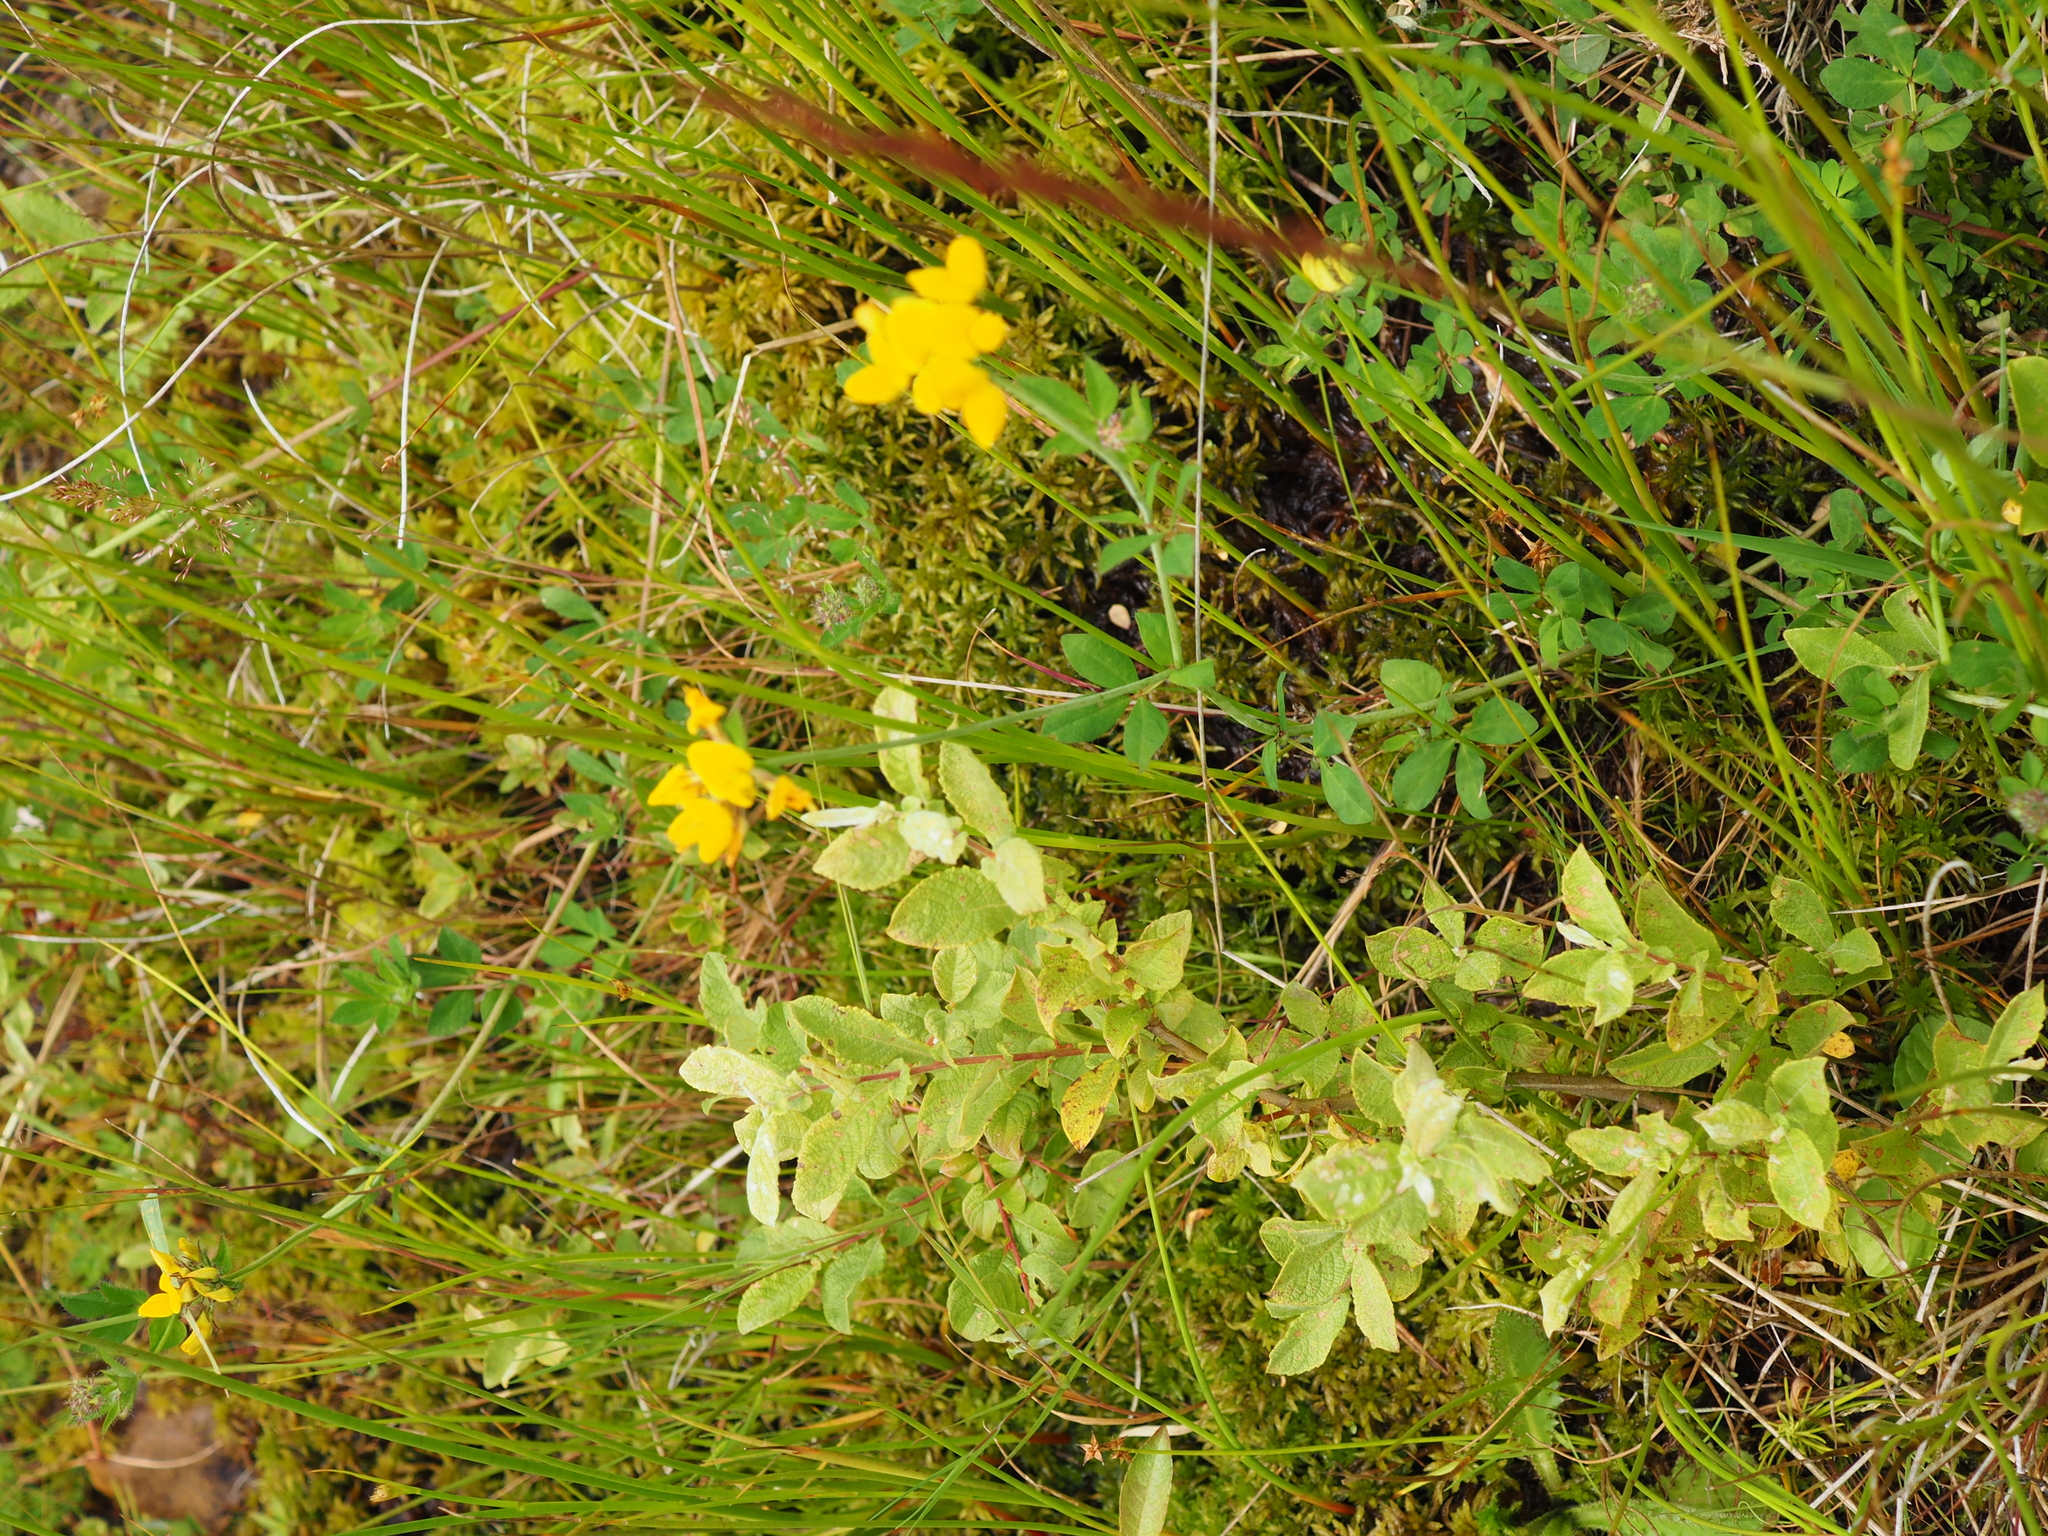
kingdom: Plantae
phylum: Tracheophyta
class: Magnoliopsida
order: Fabales
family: Fabaceae
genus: Lotus
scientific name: Lotus pedunculatus
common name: Greater birdsfoot-trefoil
